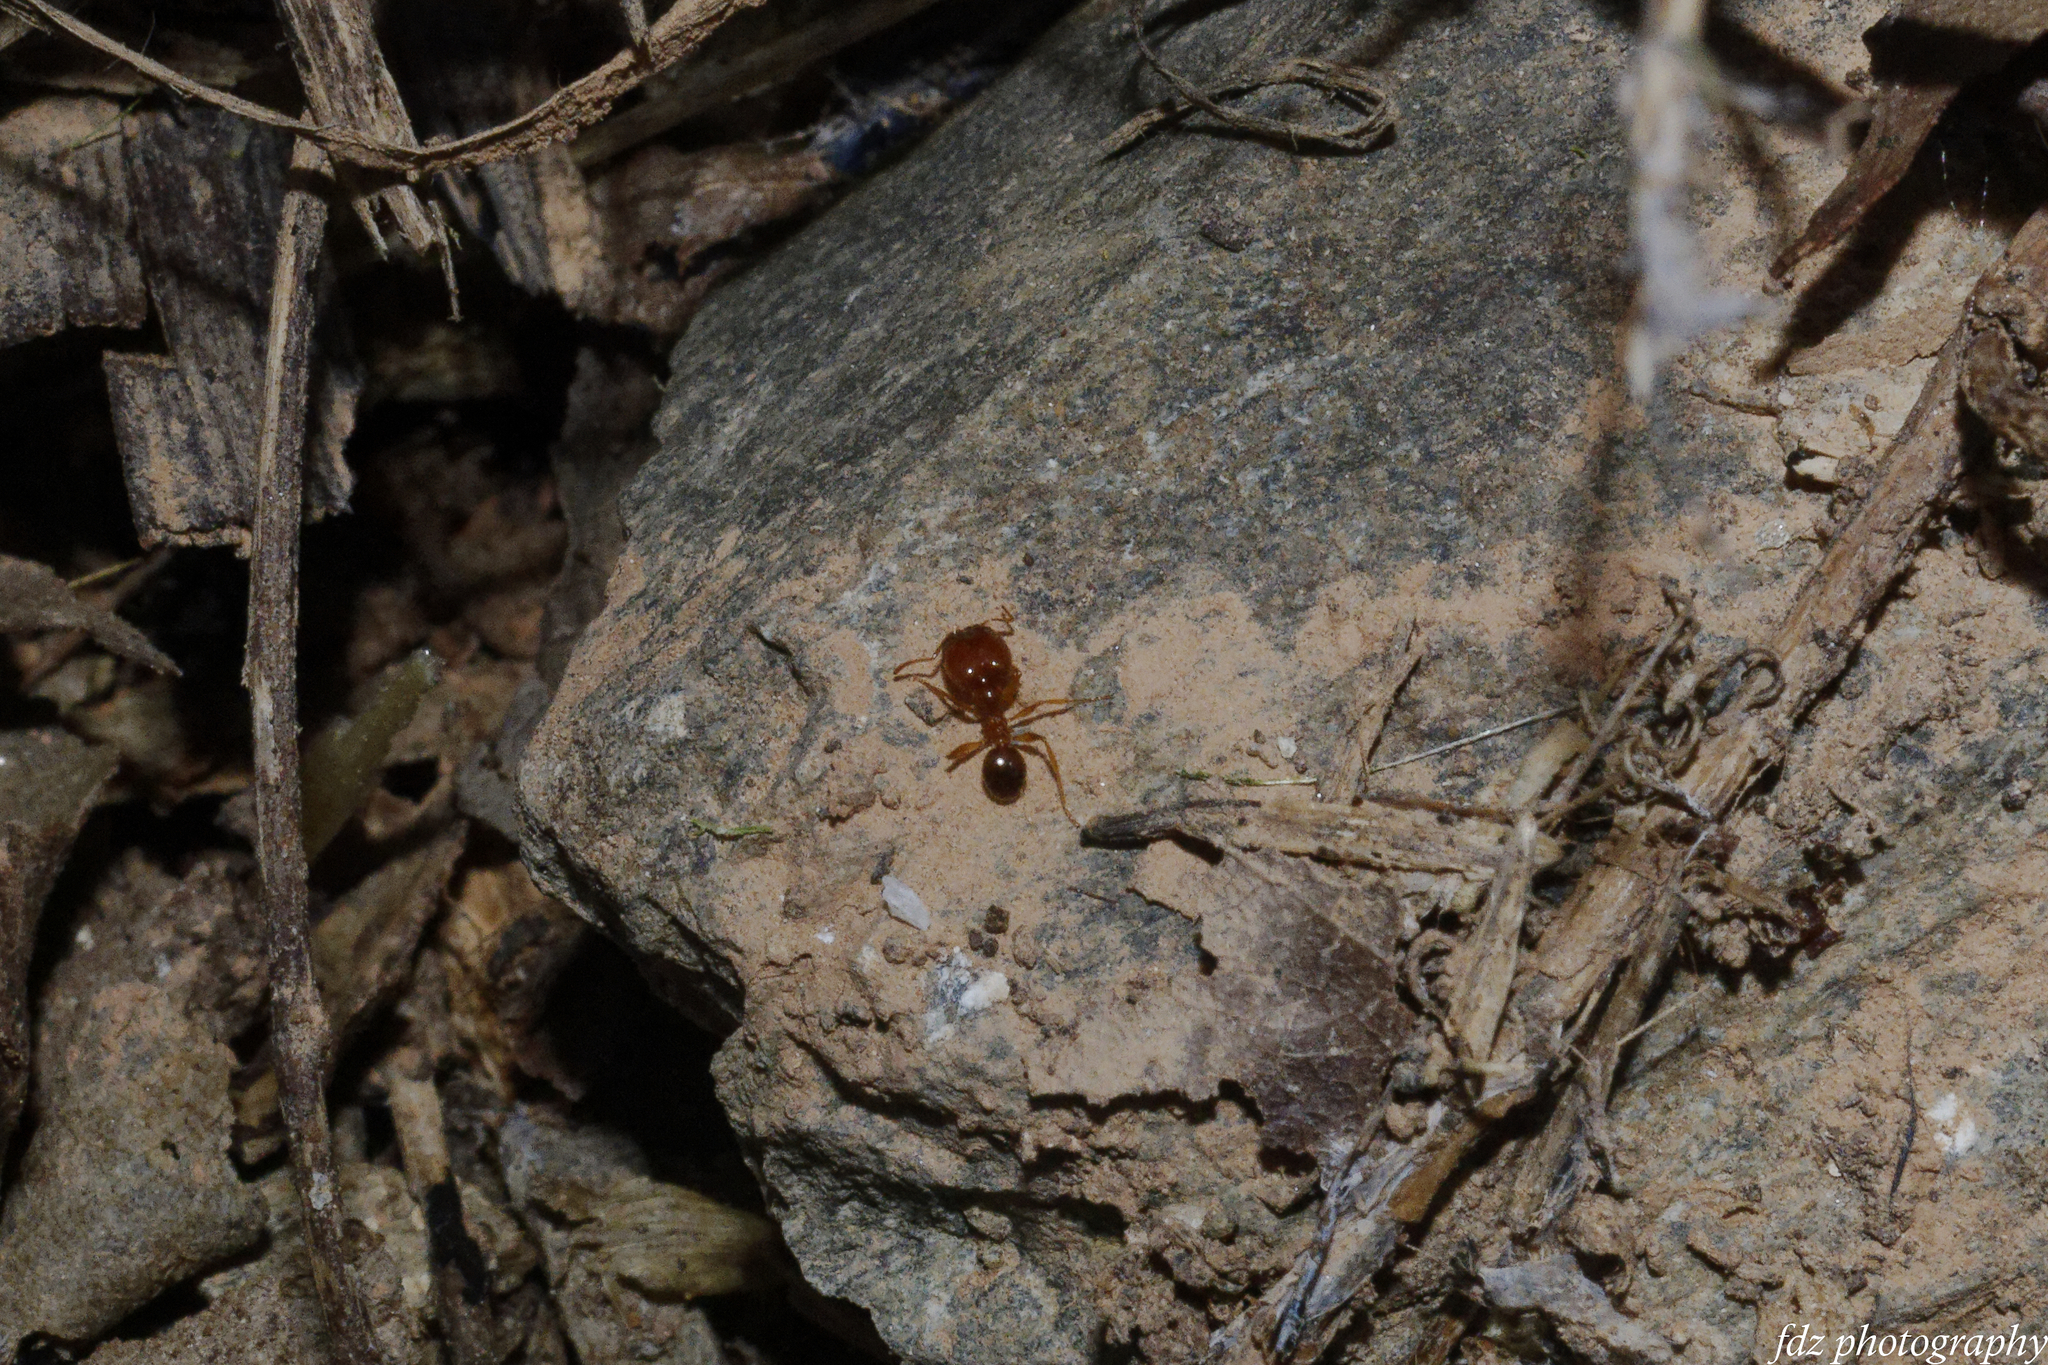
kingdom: Animalia
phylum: Arthropoda
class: Insecta
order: Hymenoptera
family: Formicidae
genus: Pheidole
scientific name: Pheidole pallidula
